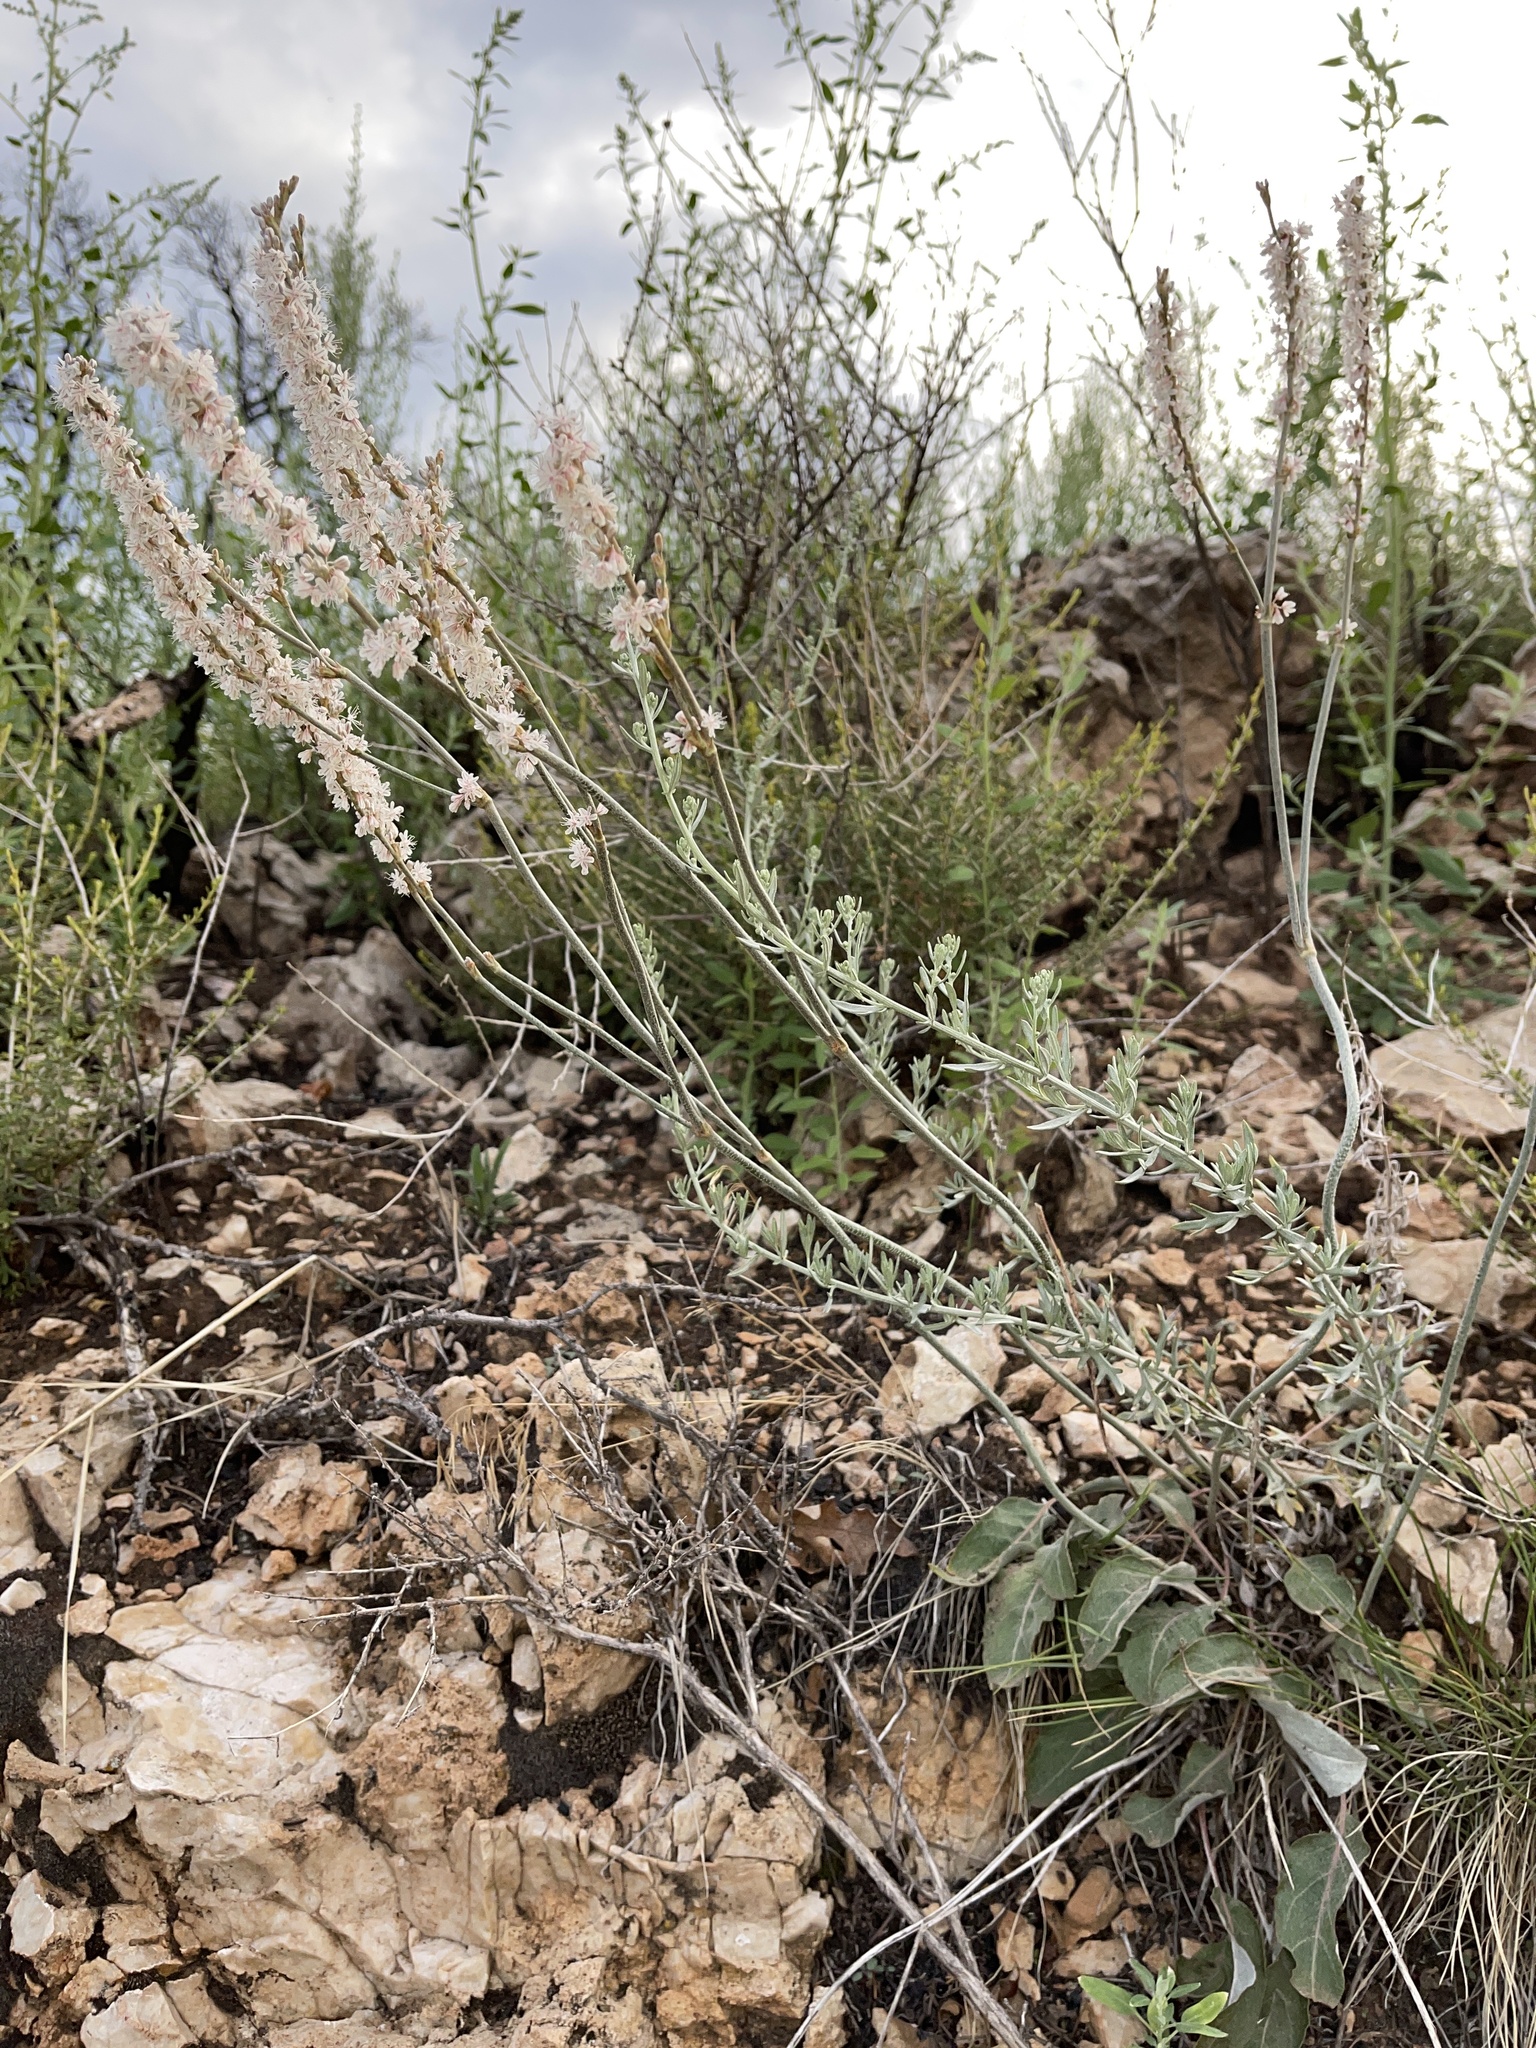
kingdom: Plantae
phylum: Tracheophyta
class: Magnoliopsida
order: Caryophyllales
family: Polygonaceae
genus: Eriogonum
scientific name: Eriogonum racemosum
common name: Redroot wild buckwheat
